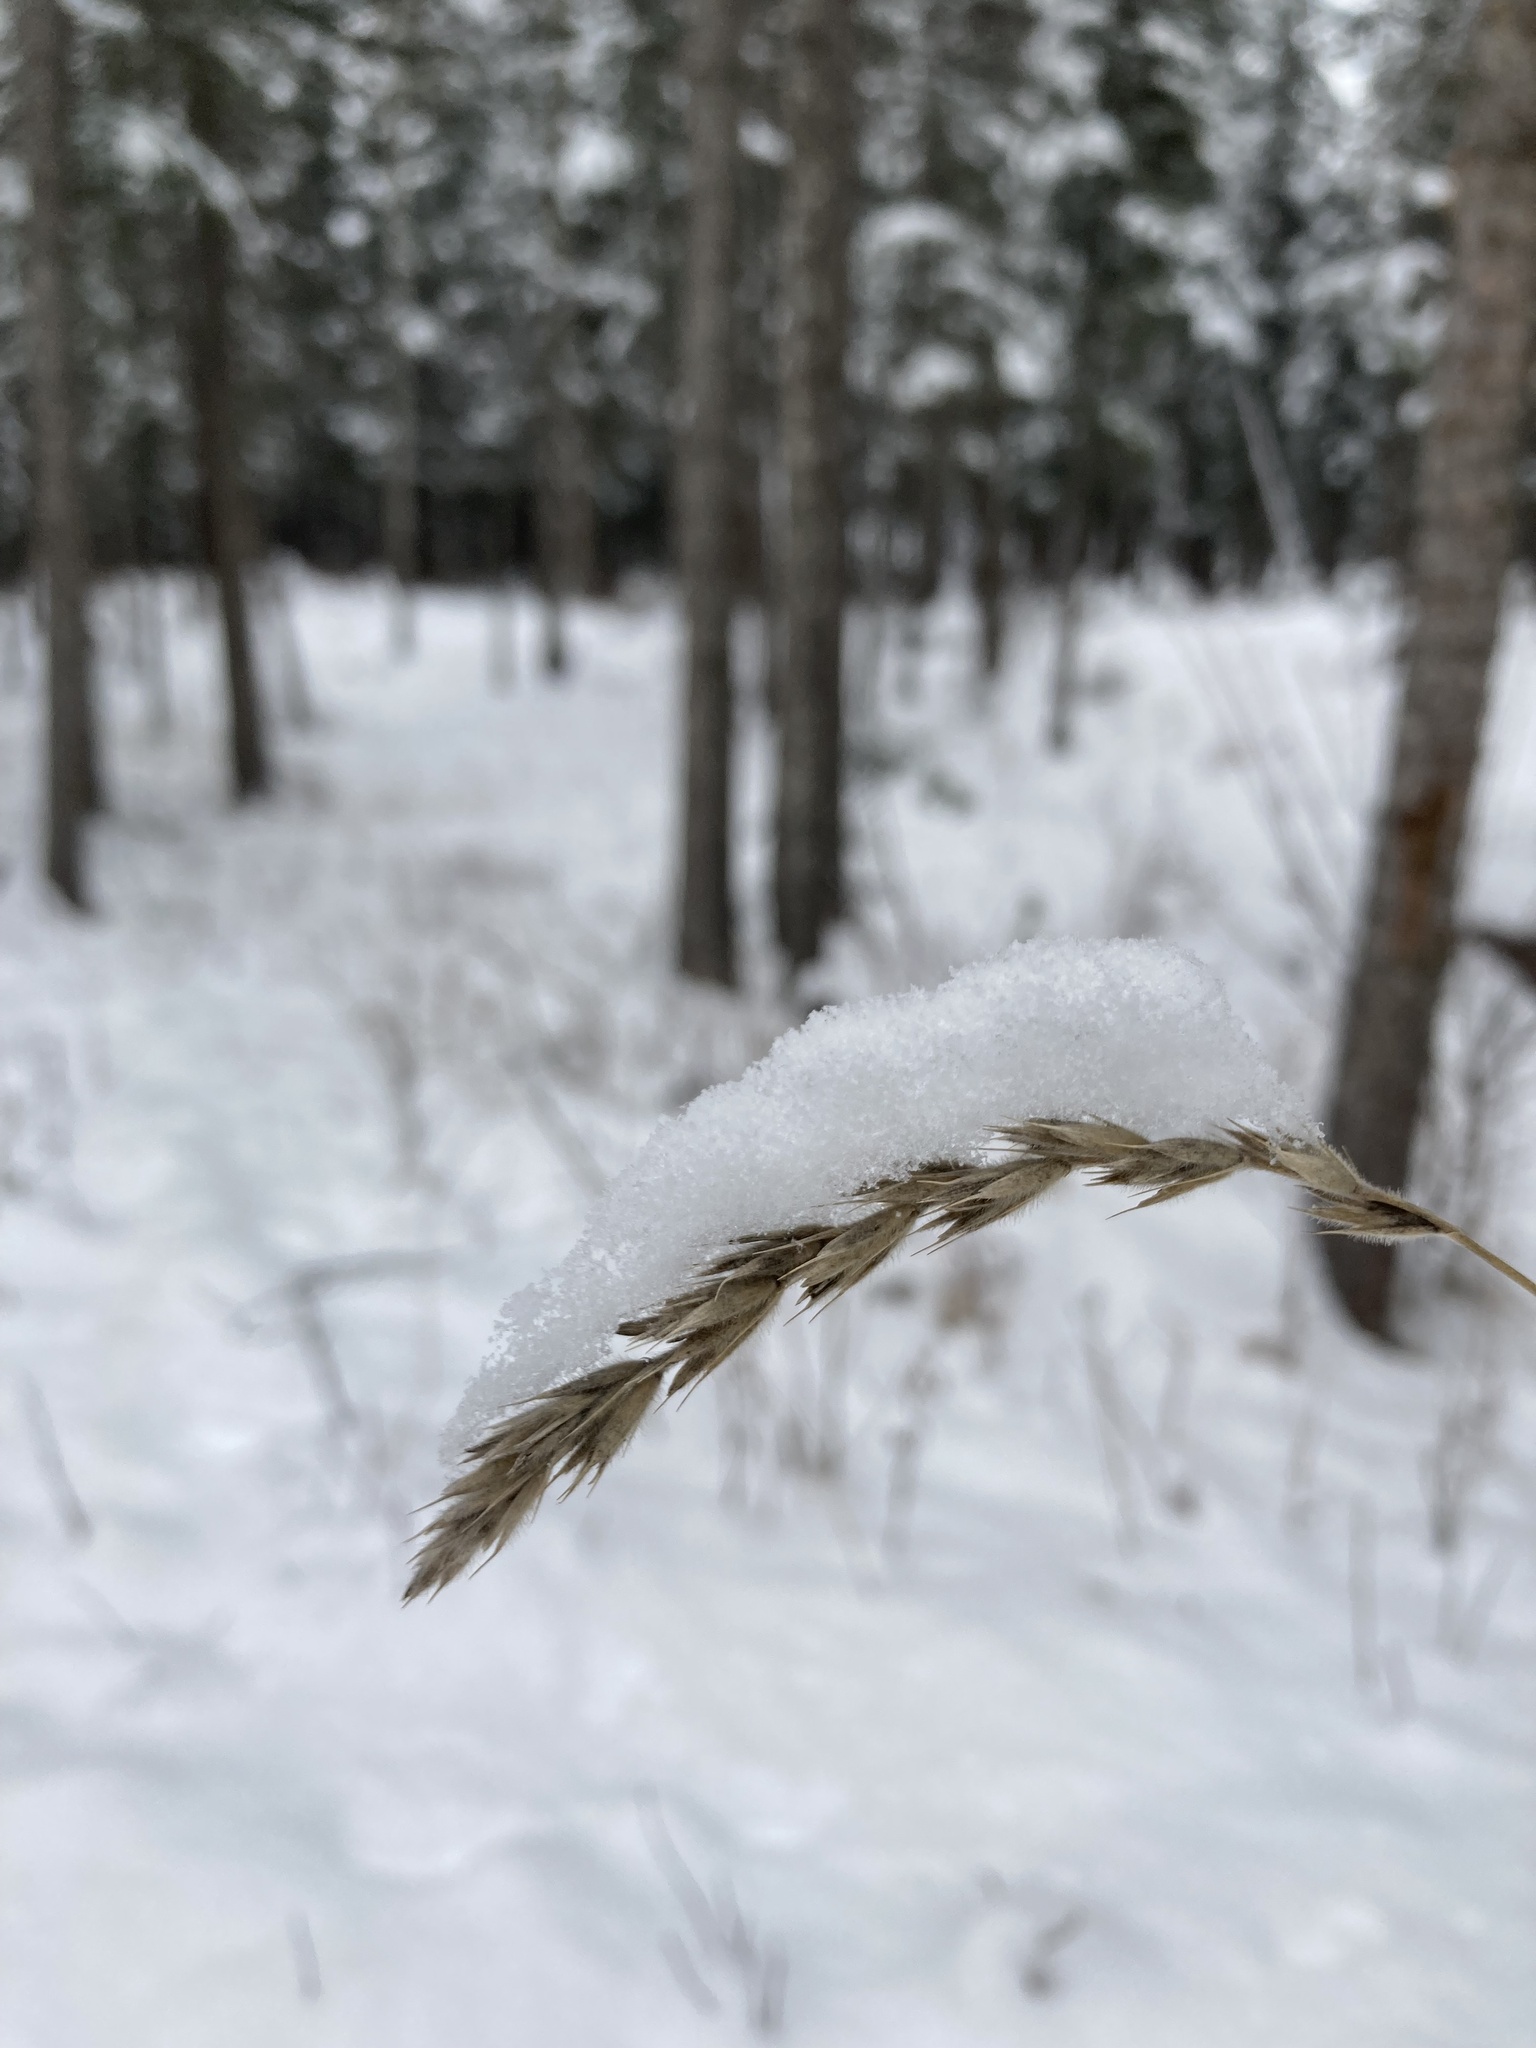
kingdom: Plantae
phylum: Tracheophyta
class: Liliopsida
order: Poales
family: Poaceae
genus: Leymus
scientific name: Leymus innovatus
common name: Boreal wild rye
